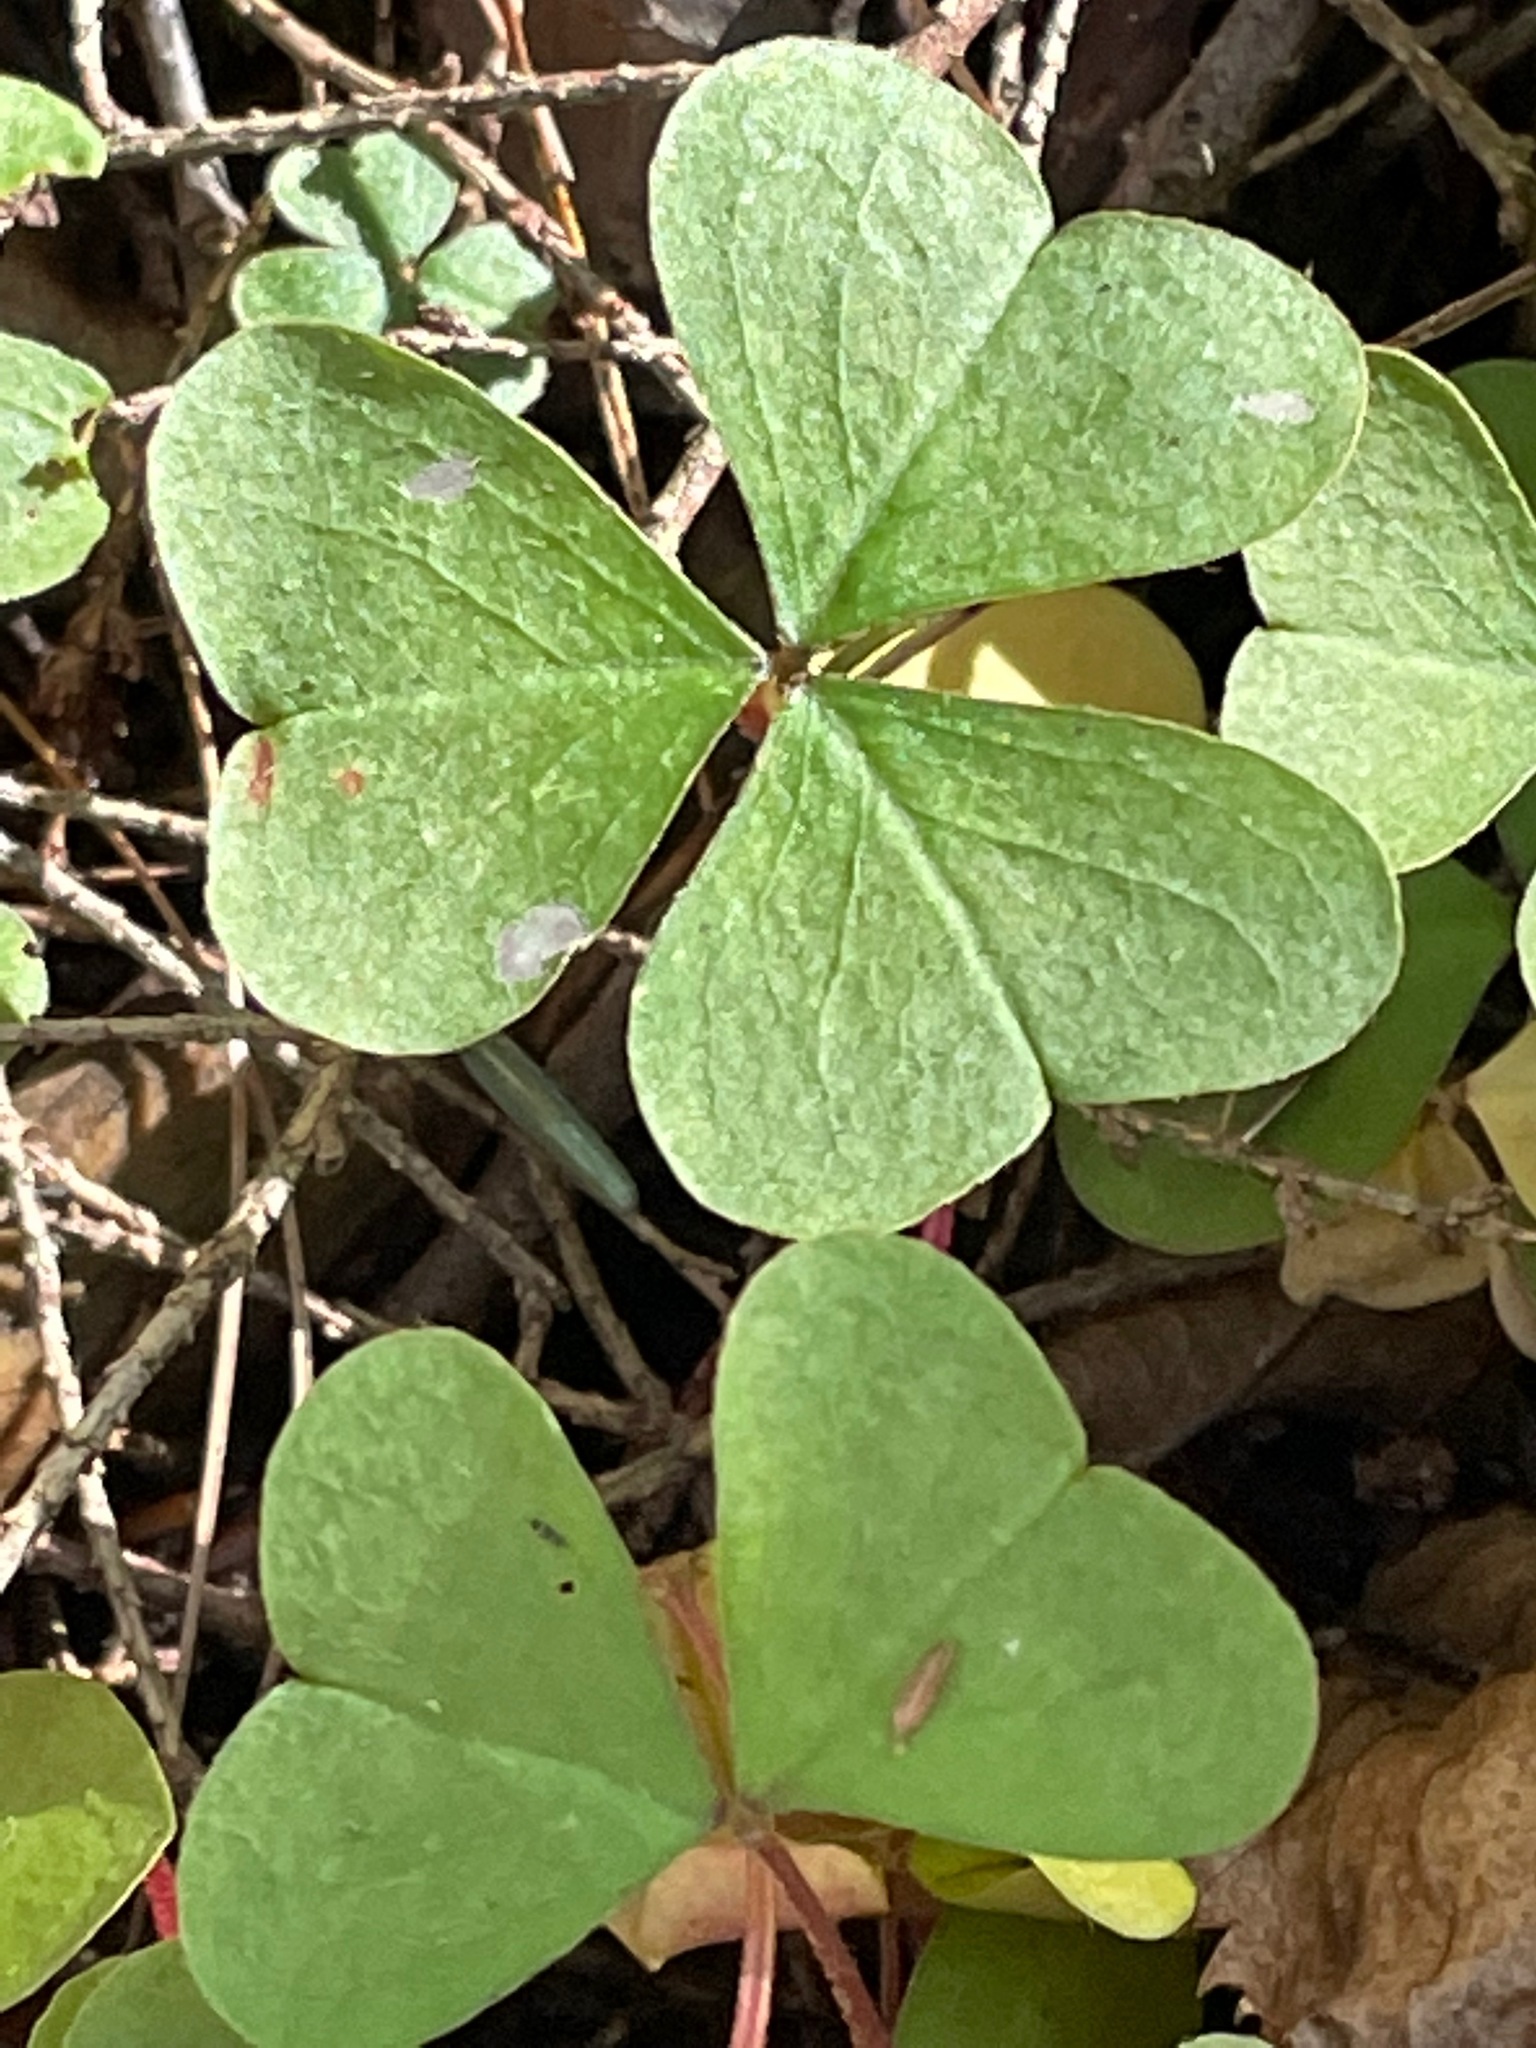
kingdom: Plantae
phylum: Tracheophyta
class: Magnoliopsida
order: Oxalidales
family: Oxalidaceae
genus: Oxalis
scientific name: Oxalis montana
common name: American wood-sorrel
